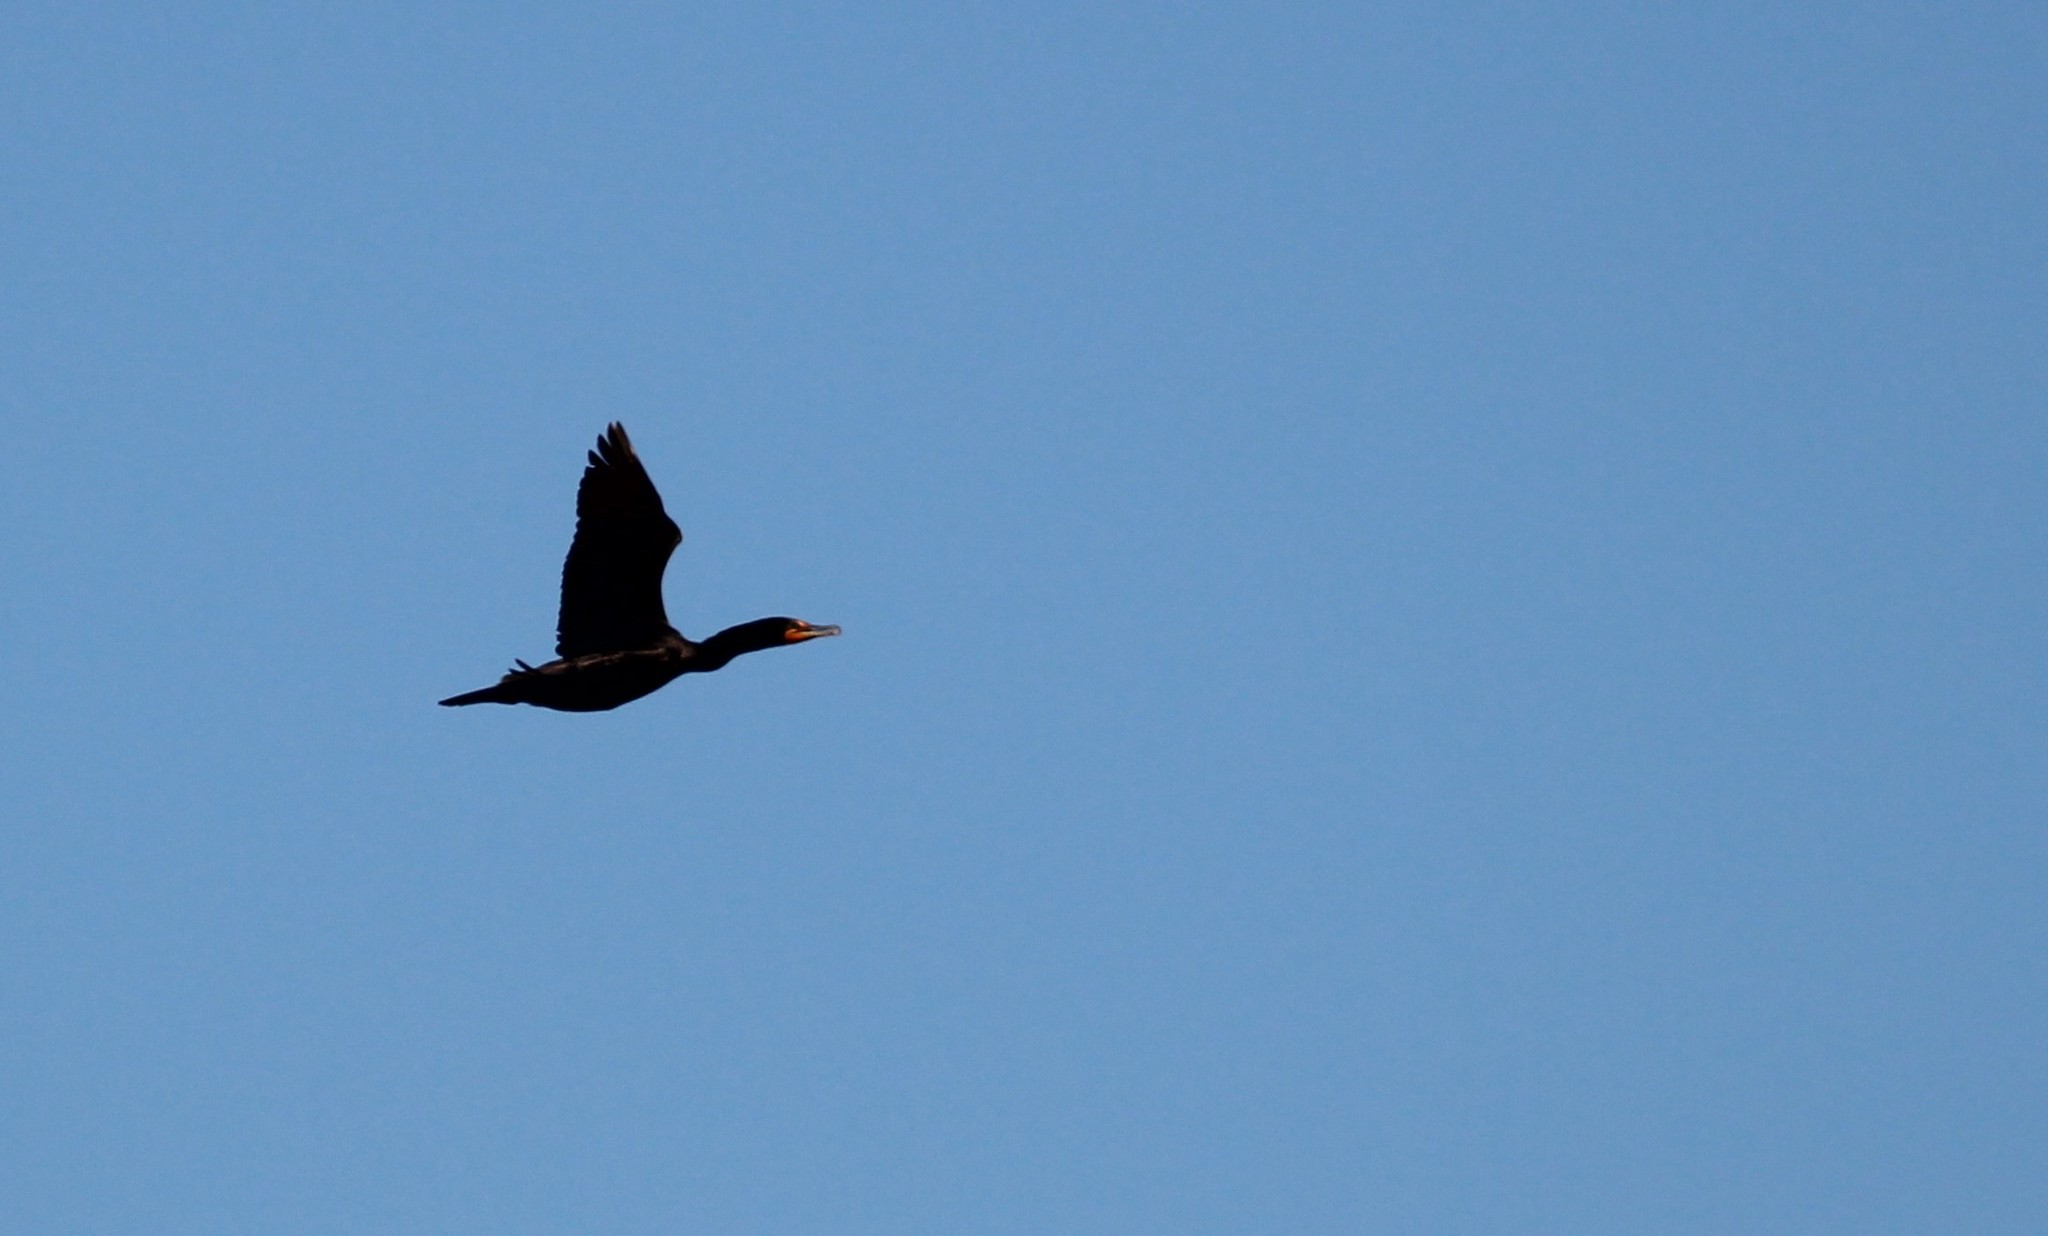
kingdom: Animalia
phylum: Chordata
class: Aves
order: Suliformes
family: Phalacrocoracidae
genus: Phalacrocorax
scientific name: Phalacrocorax auritus
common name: Double-crested cormorant
